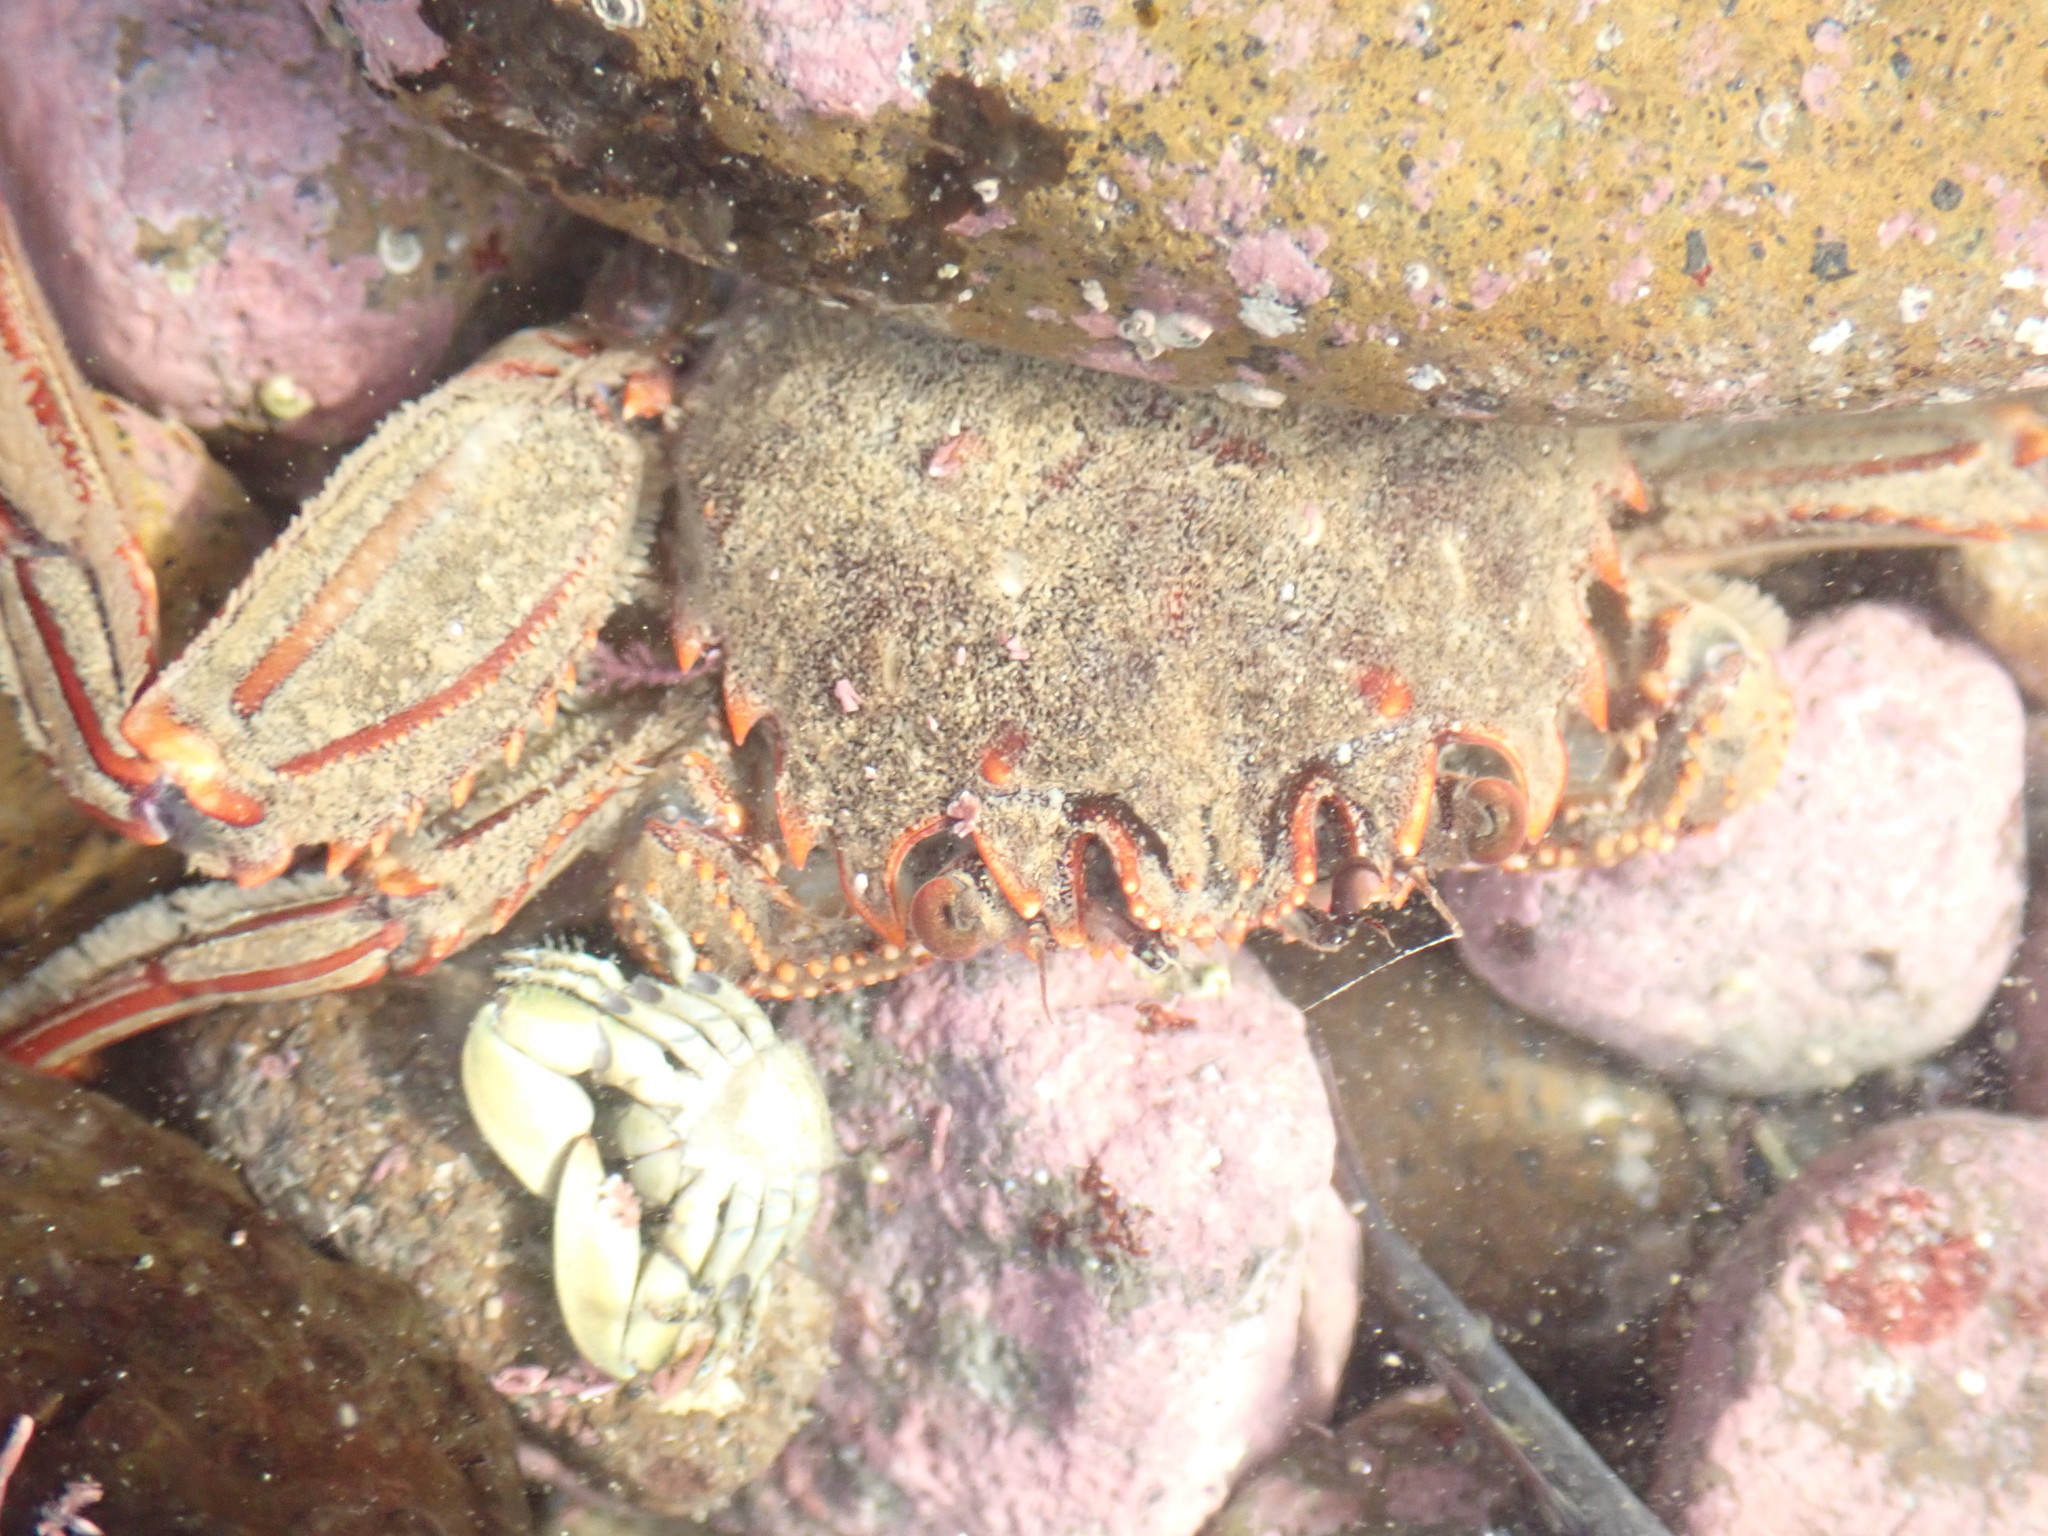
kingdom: Animalia
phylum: Arthropoda
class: Malacostraca
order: Decapoda
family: Plagusiidae
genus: Guinusia
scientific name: Guinusia chabrus
